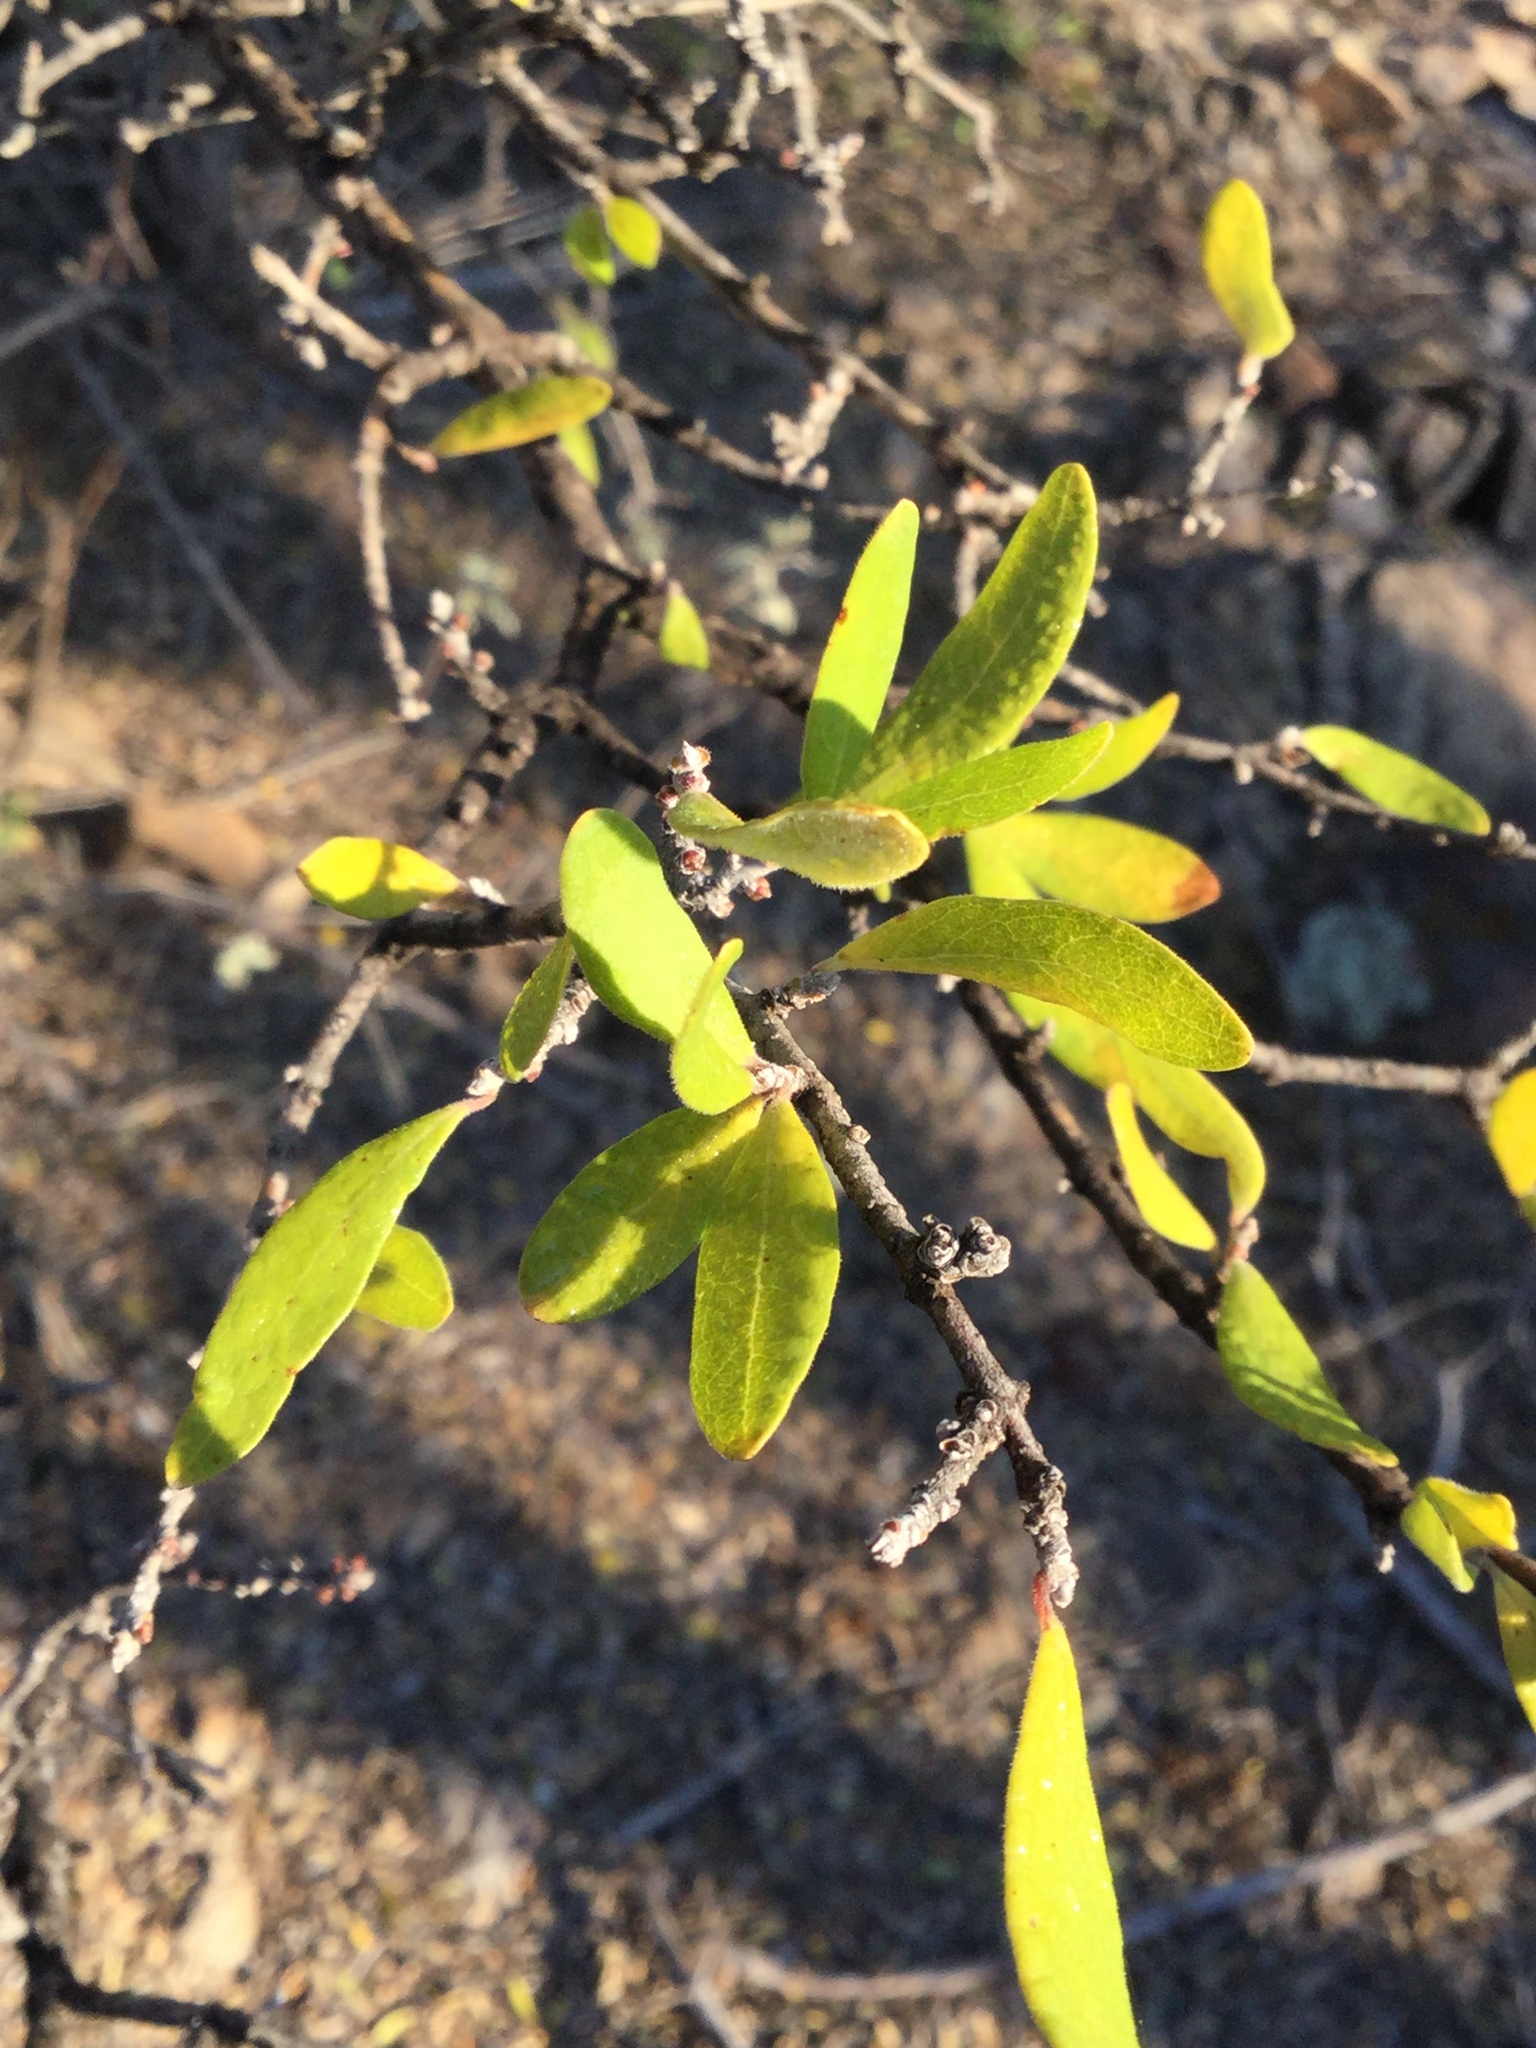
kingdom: Plantae
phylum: Tracheophyta
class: Magnoliopsida
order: Lamiales
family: Oleaceae
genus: Forestiera
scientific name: Forestiera phillyreoides
